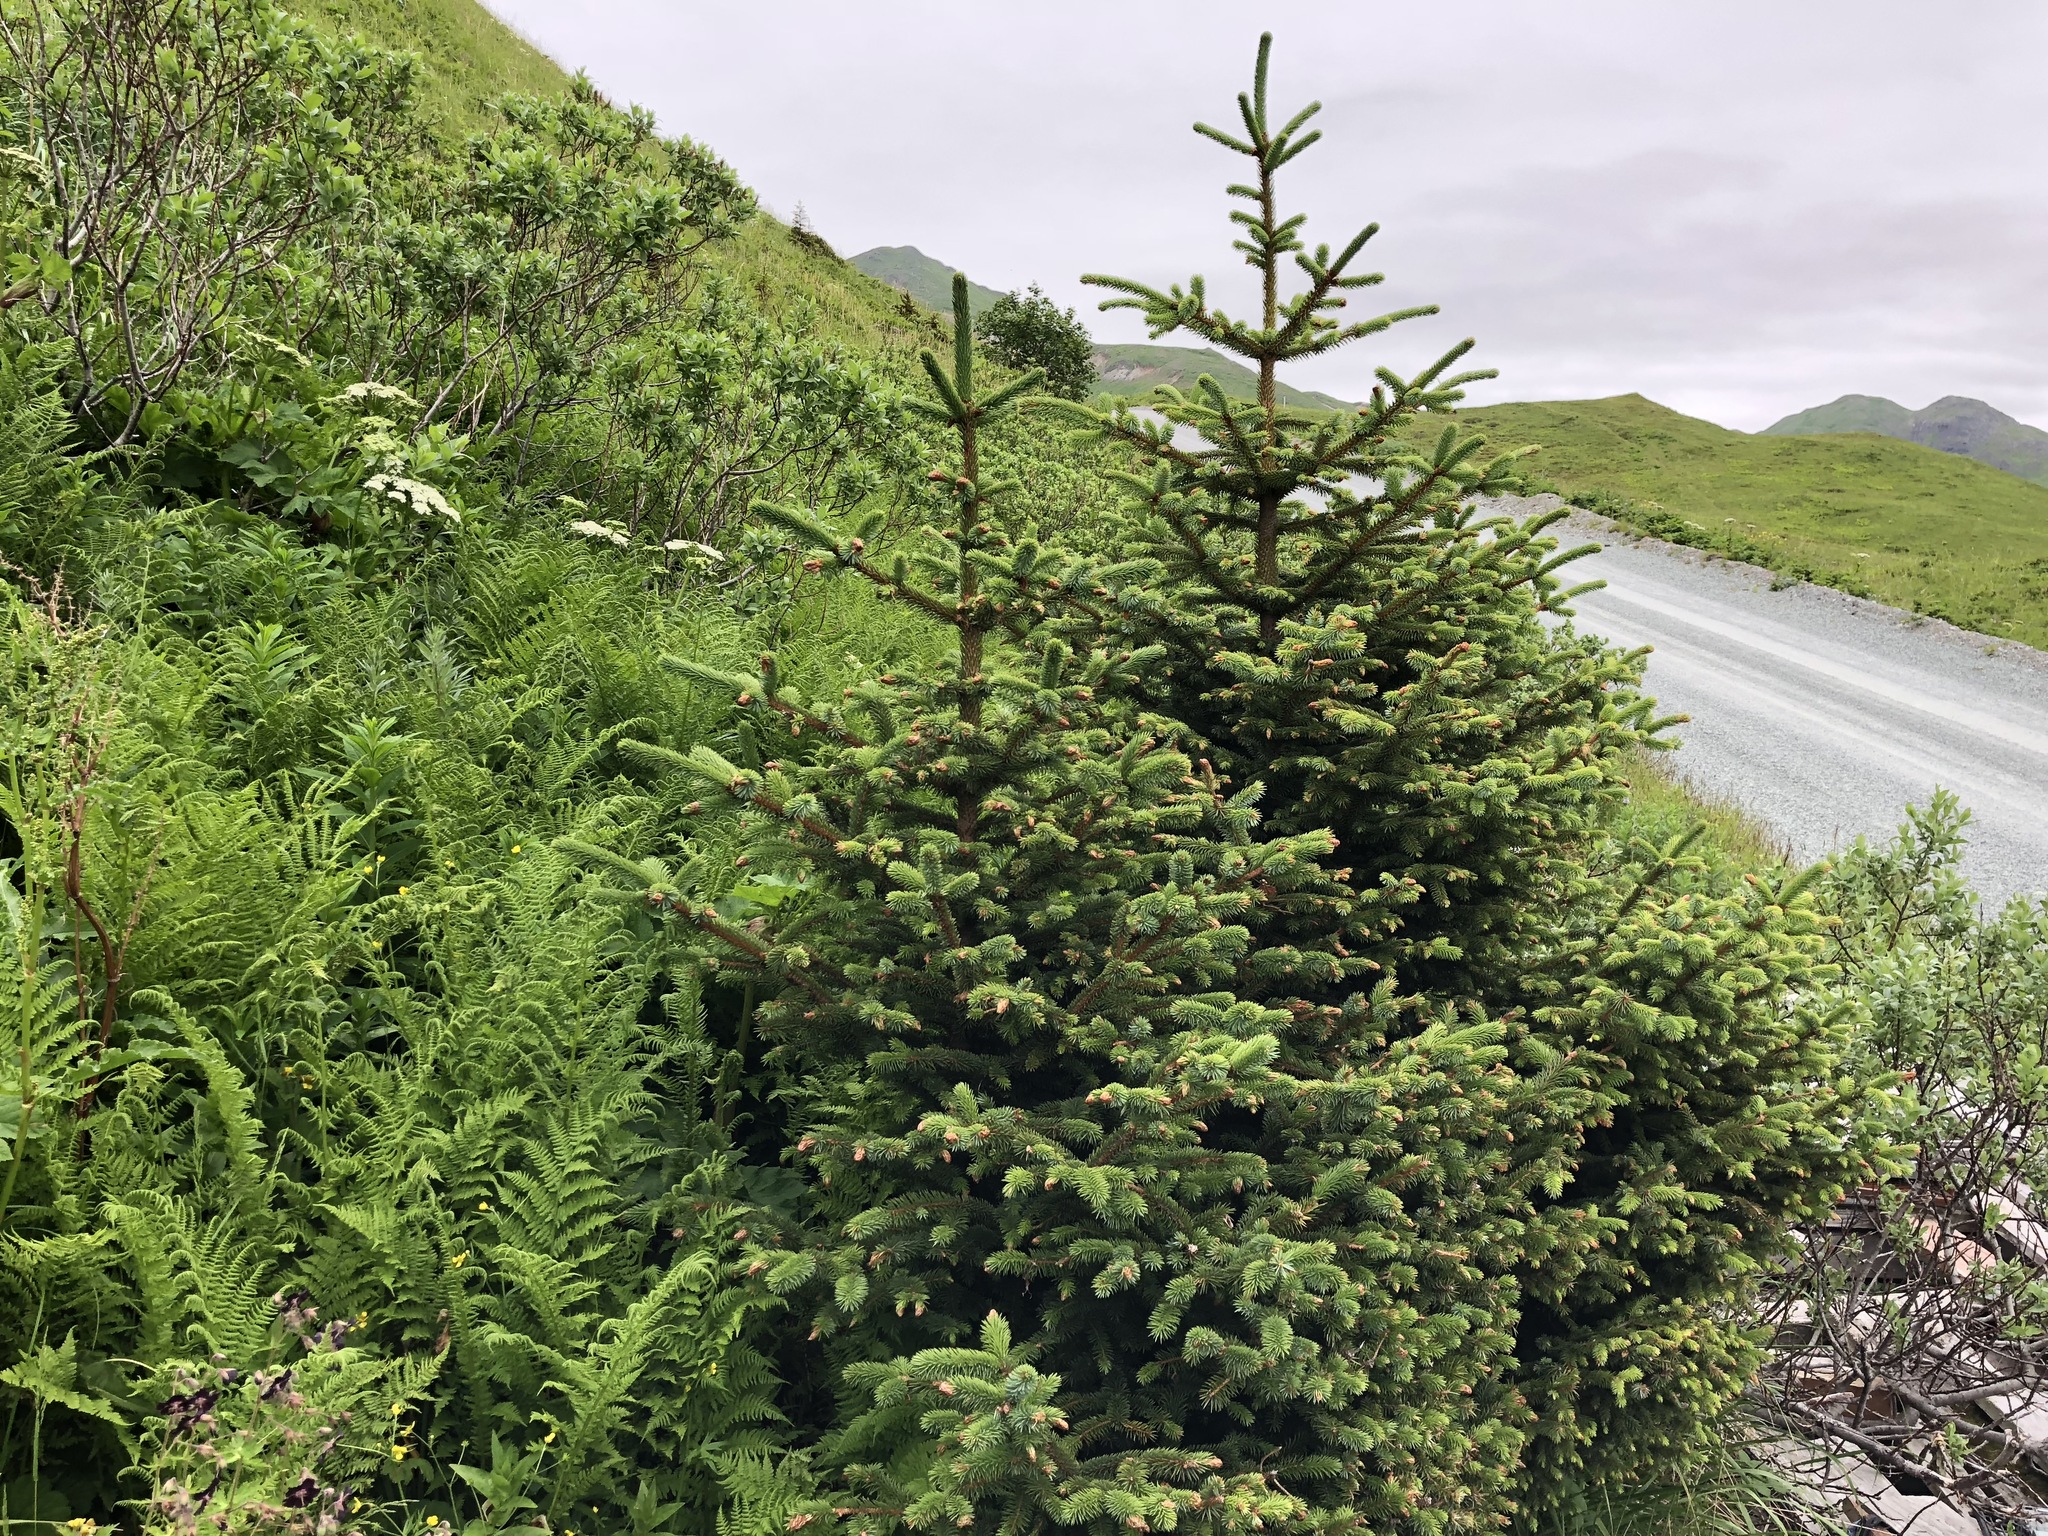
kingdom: Plantae
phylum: Tracheophyta
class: Pinopsida
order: Pinales
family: Pinaceae
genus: Picea
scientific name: Picea sitchensis
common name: Sitka spruce
